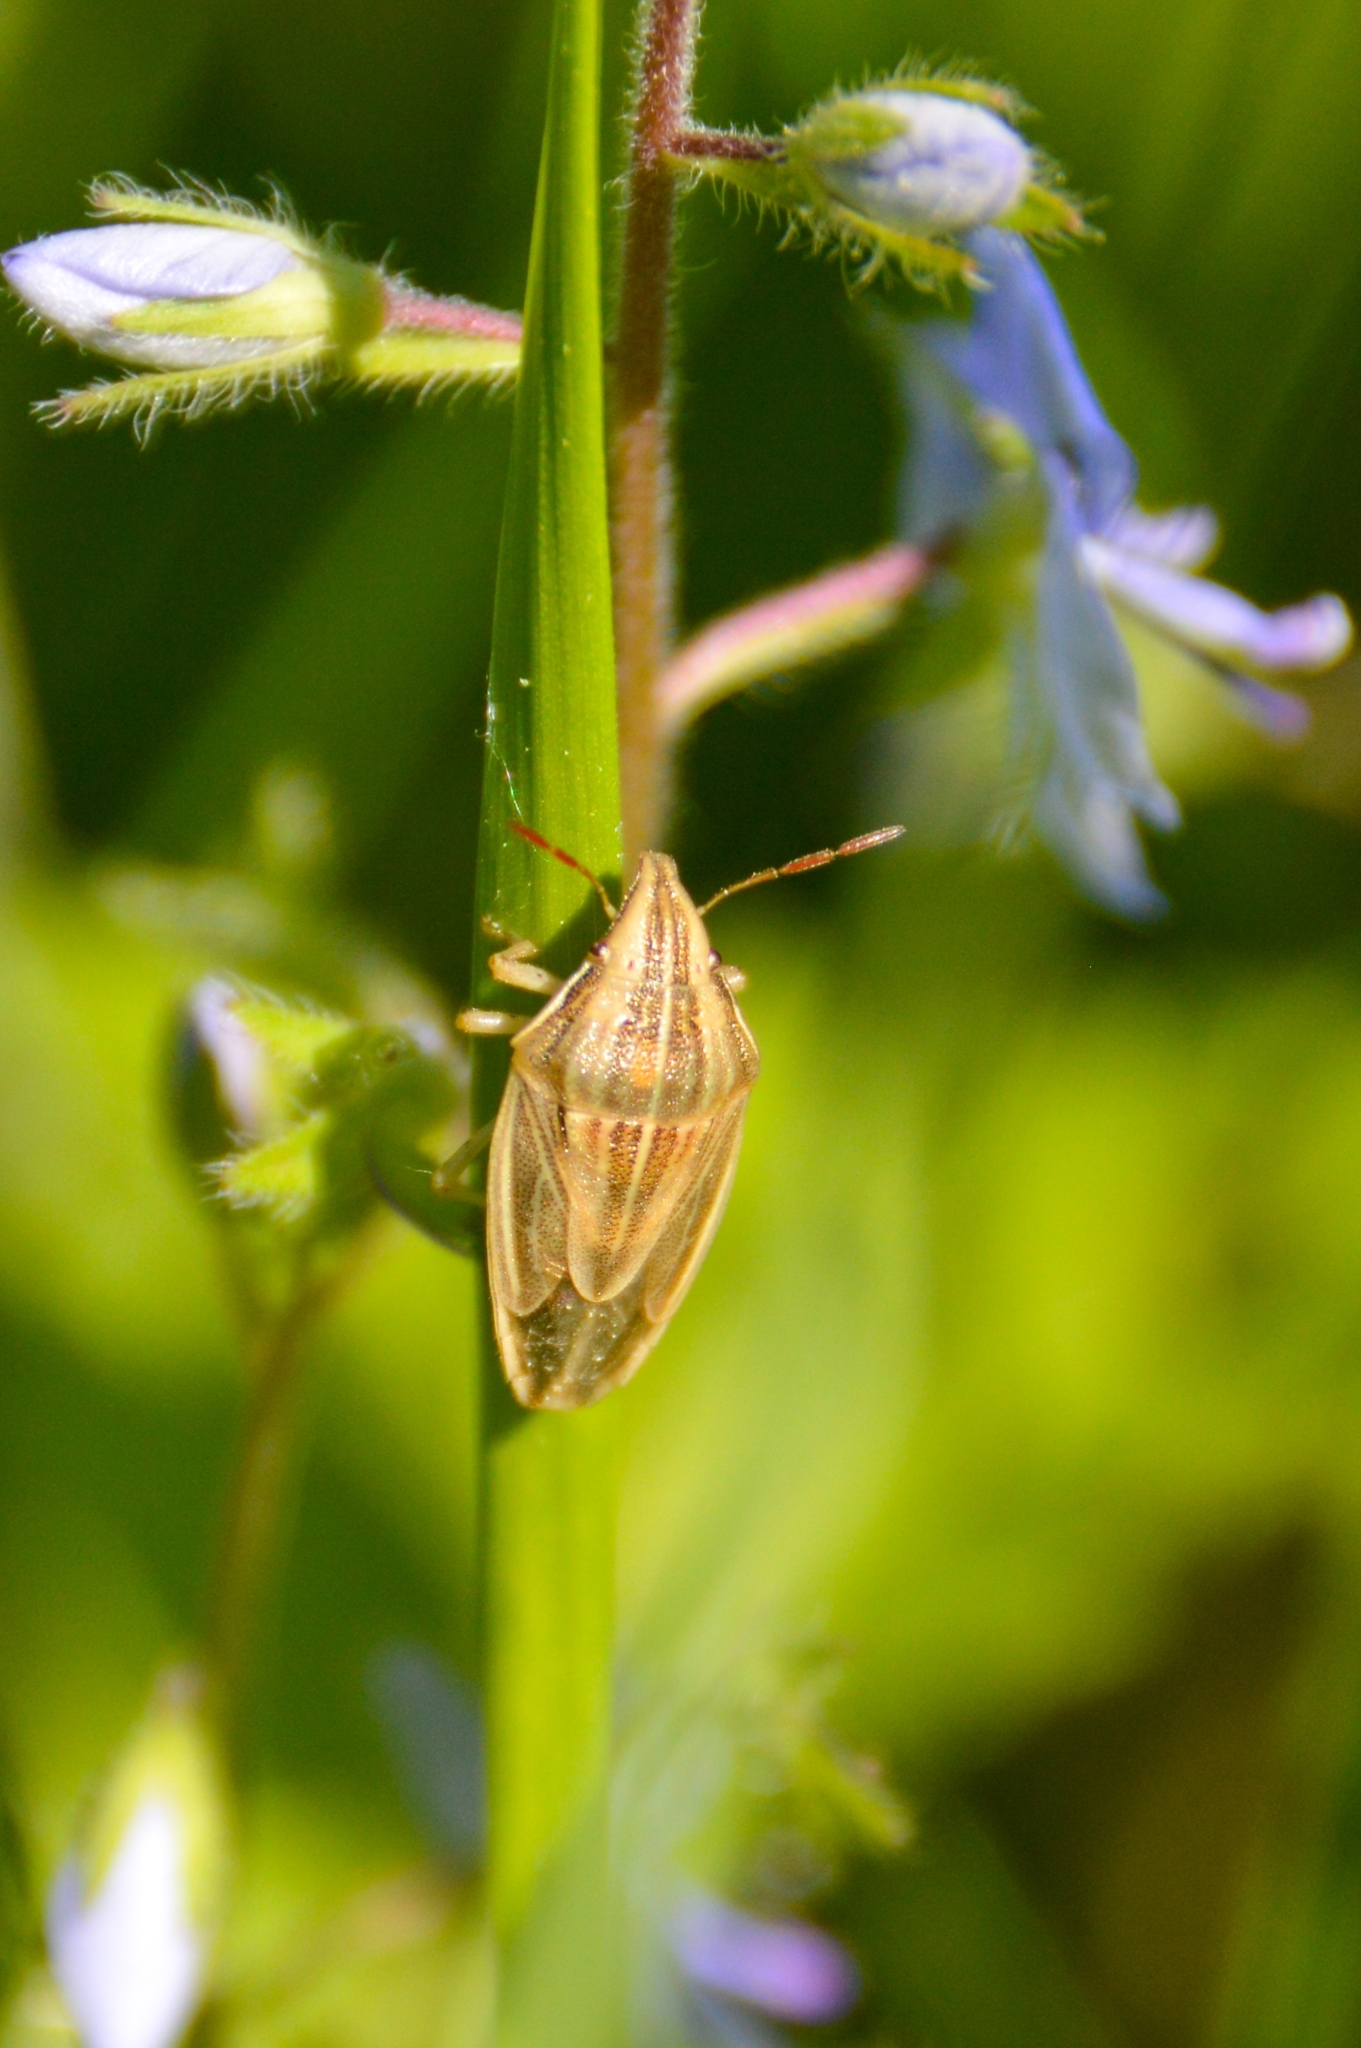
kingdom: Animalia
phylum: Arthropoda
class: Insecta
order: Hemiptera
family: Pentatomidae
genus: Aelia
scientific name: Aelia acuminata
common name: Bishop's mitre
